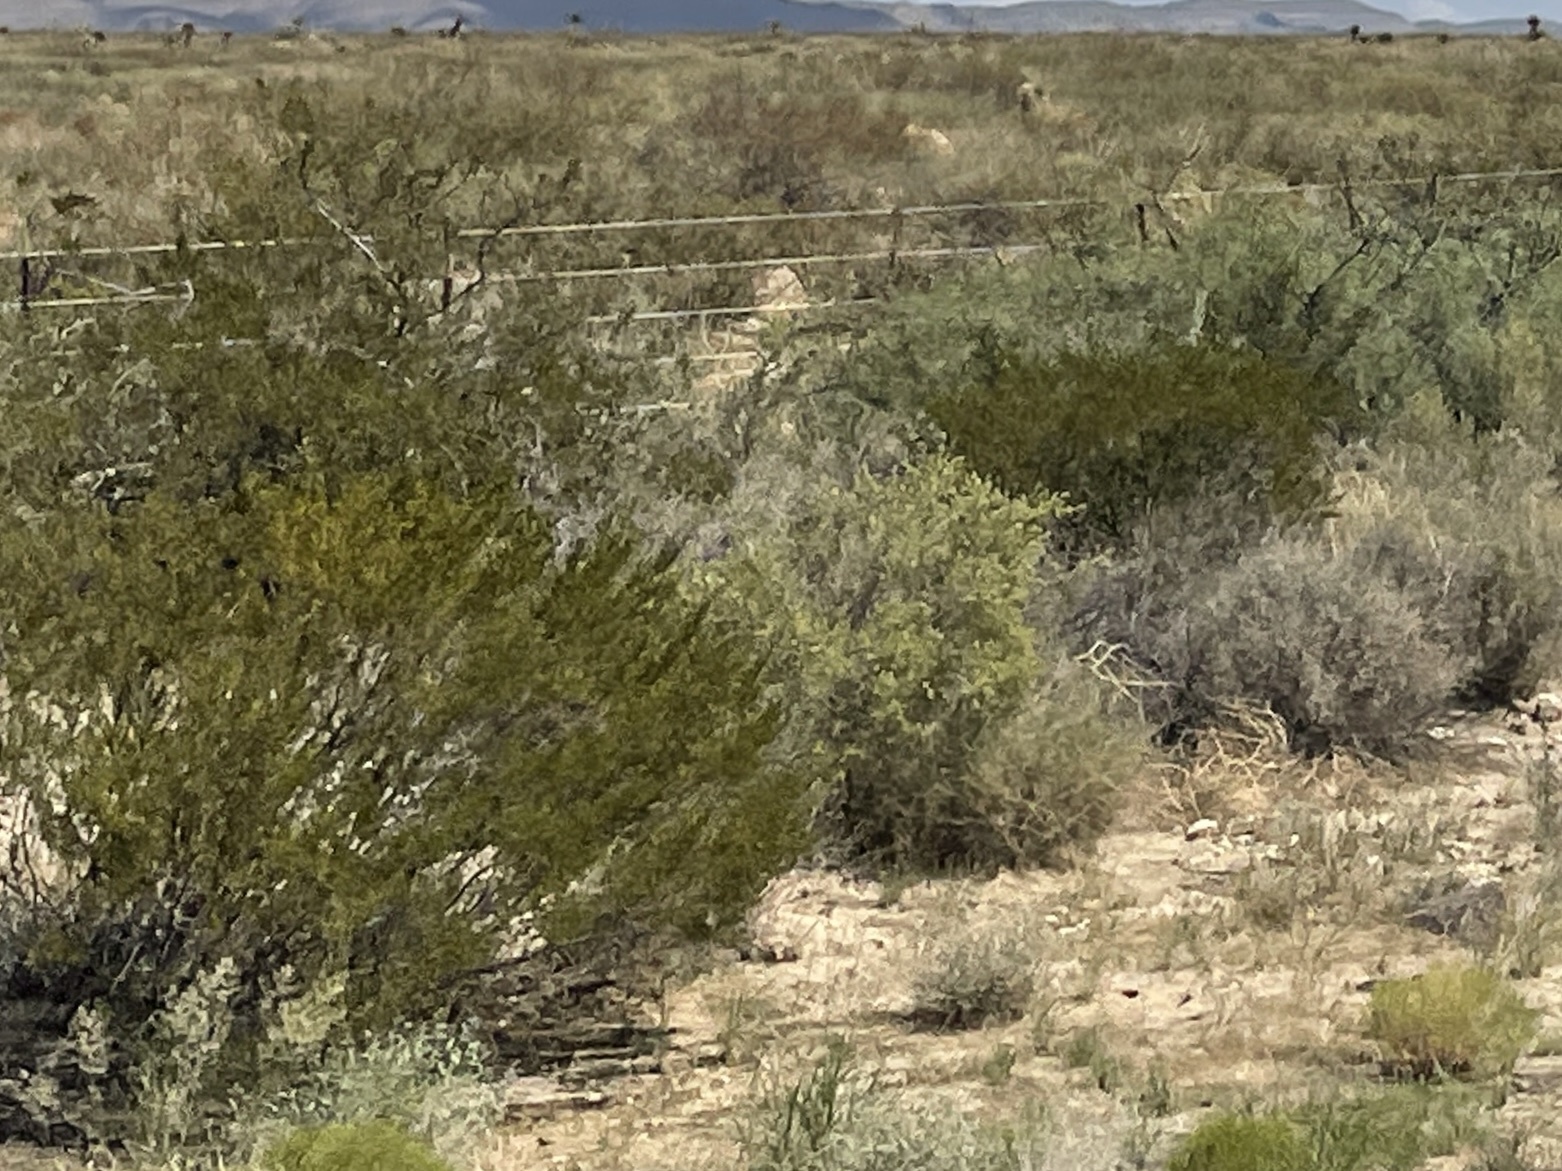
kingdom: Plantae
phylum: Tracheophyta
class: Magnoliopsida
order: Zygophyllales
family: Zygophyllaceae
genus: Larrea
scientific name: Larrea tridentata
